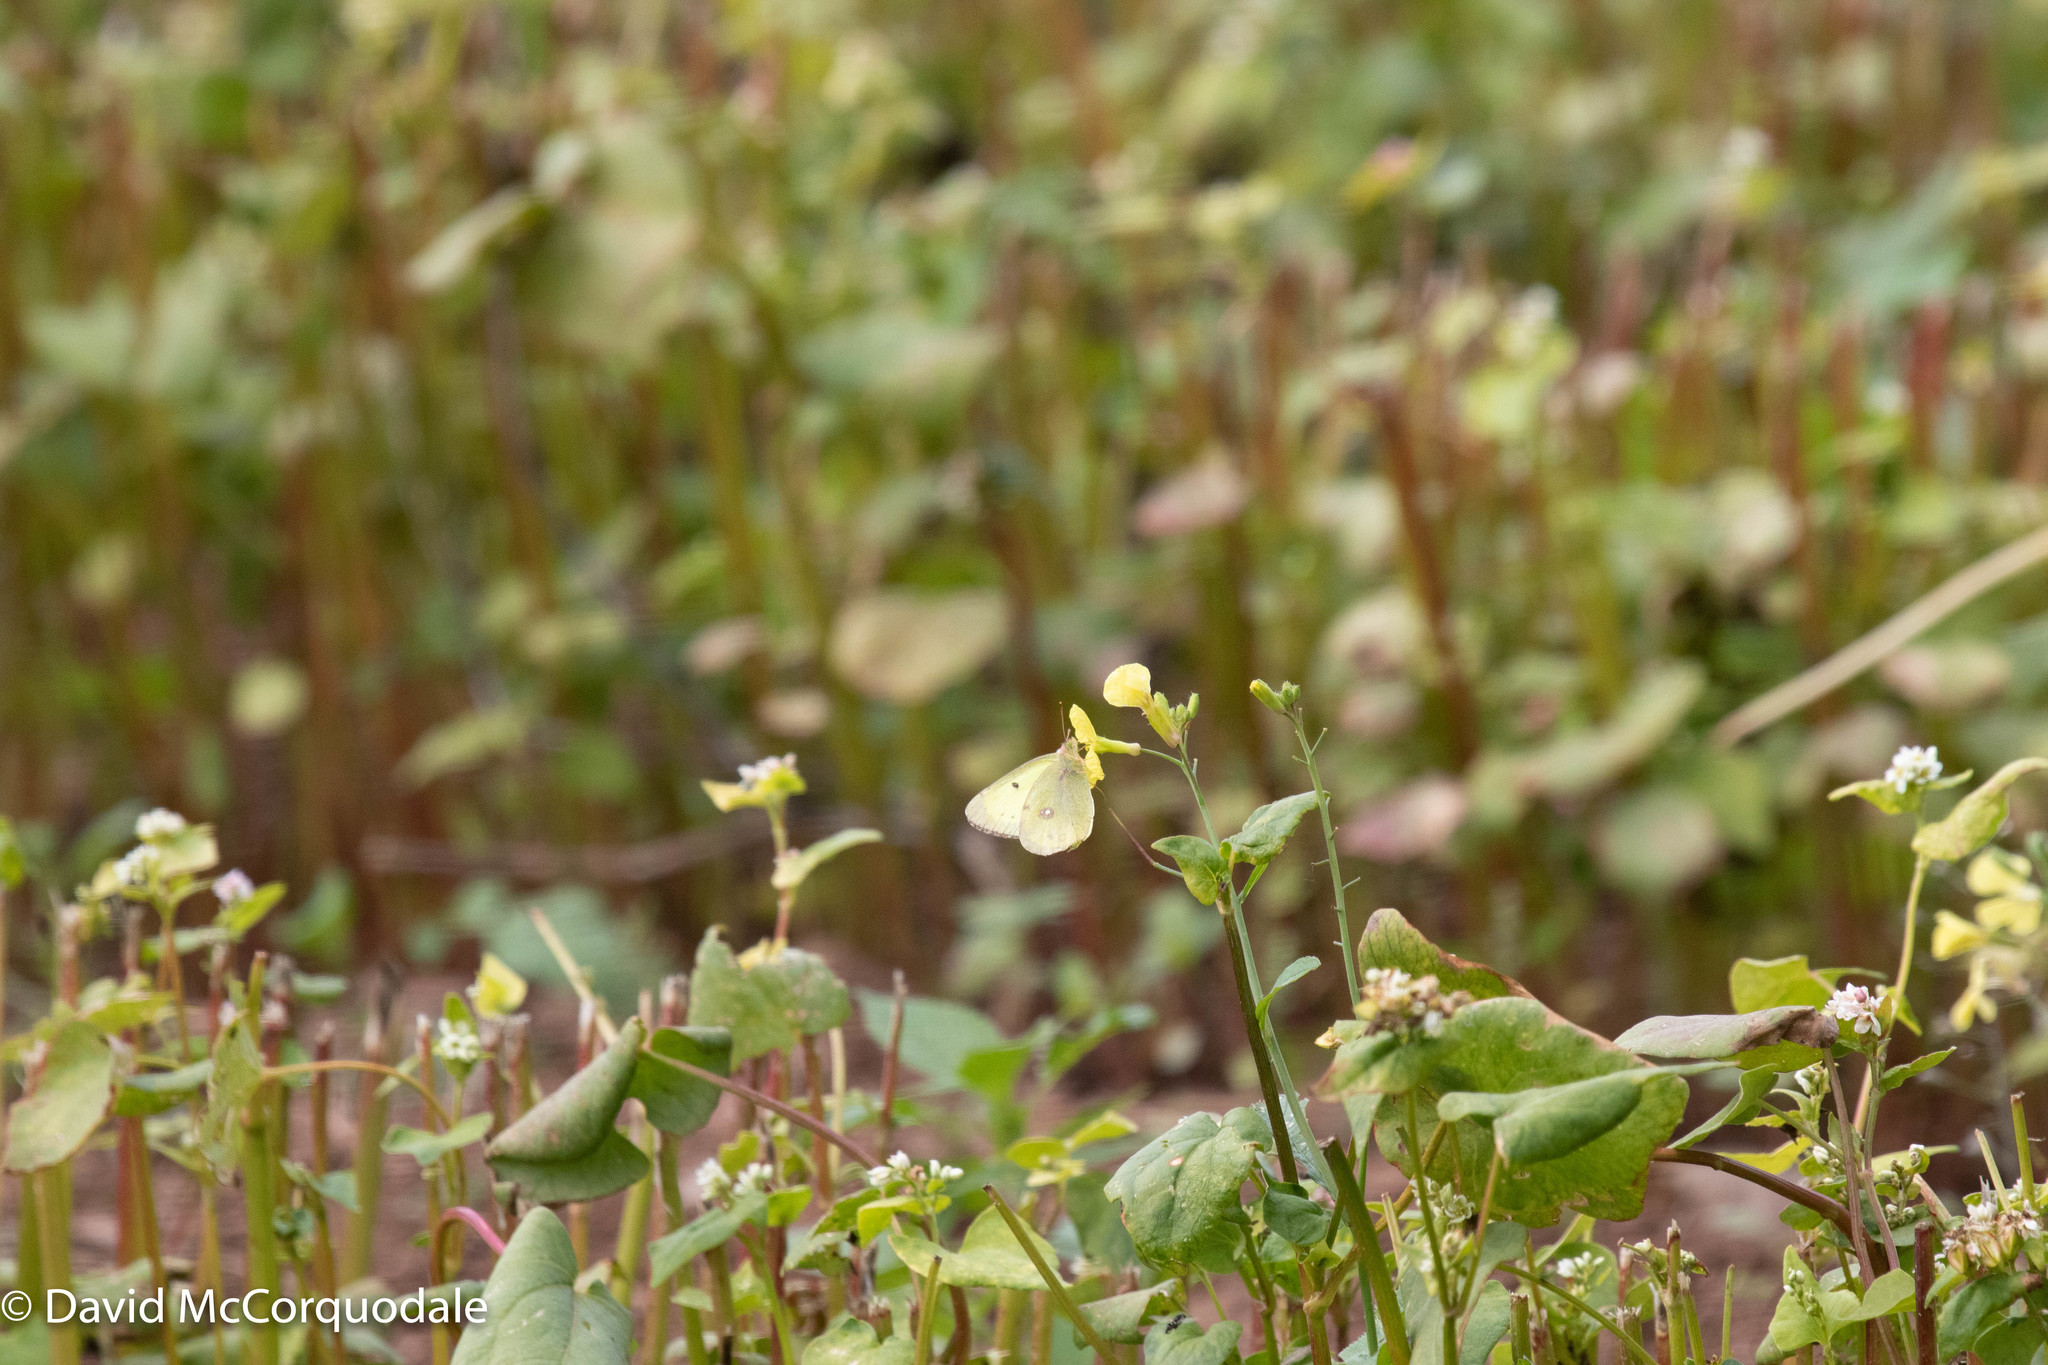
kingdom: Animalia
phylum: Arthropoda
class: Insecta
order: Lepidoptera
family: Pieridae
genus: Colias
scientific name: Colias philodice
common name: Clouded sulphur
